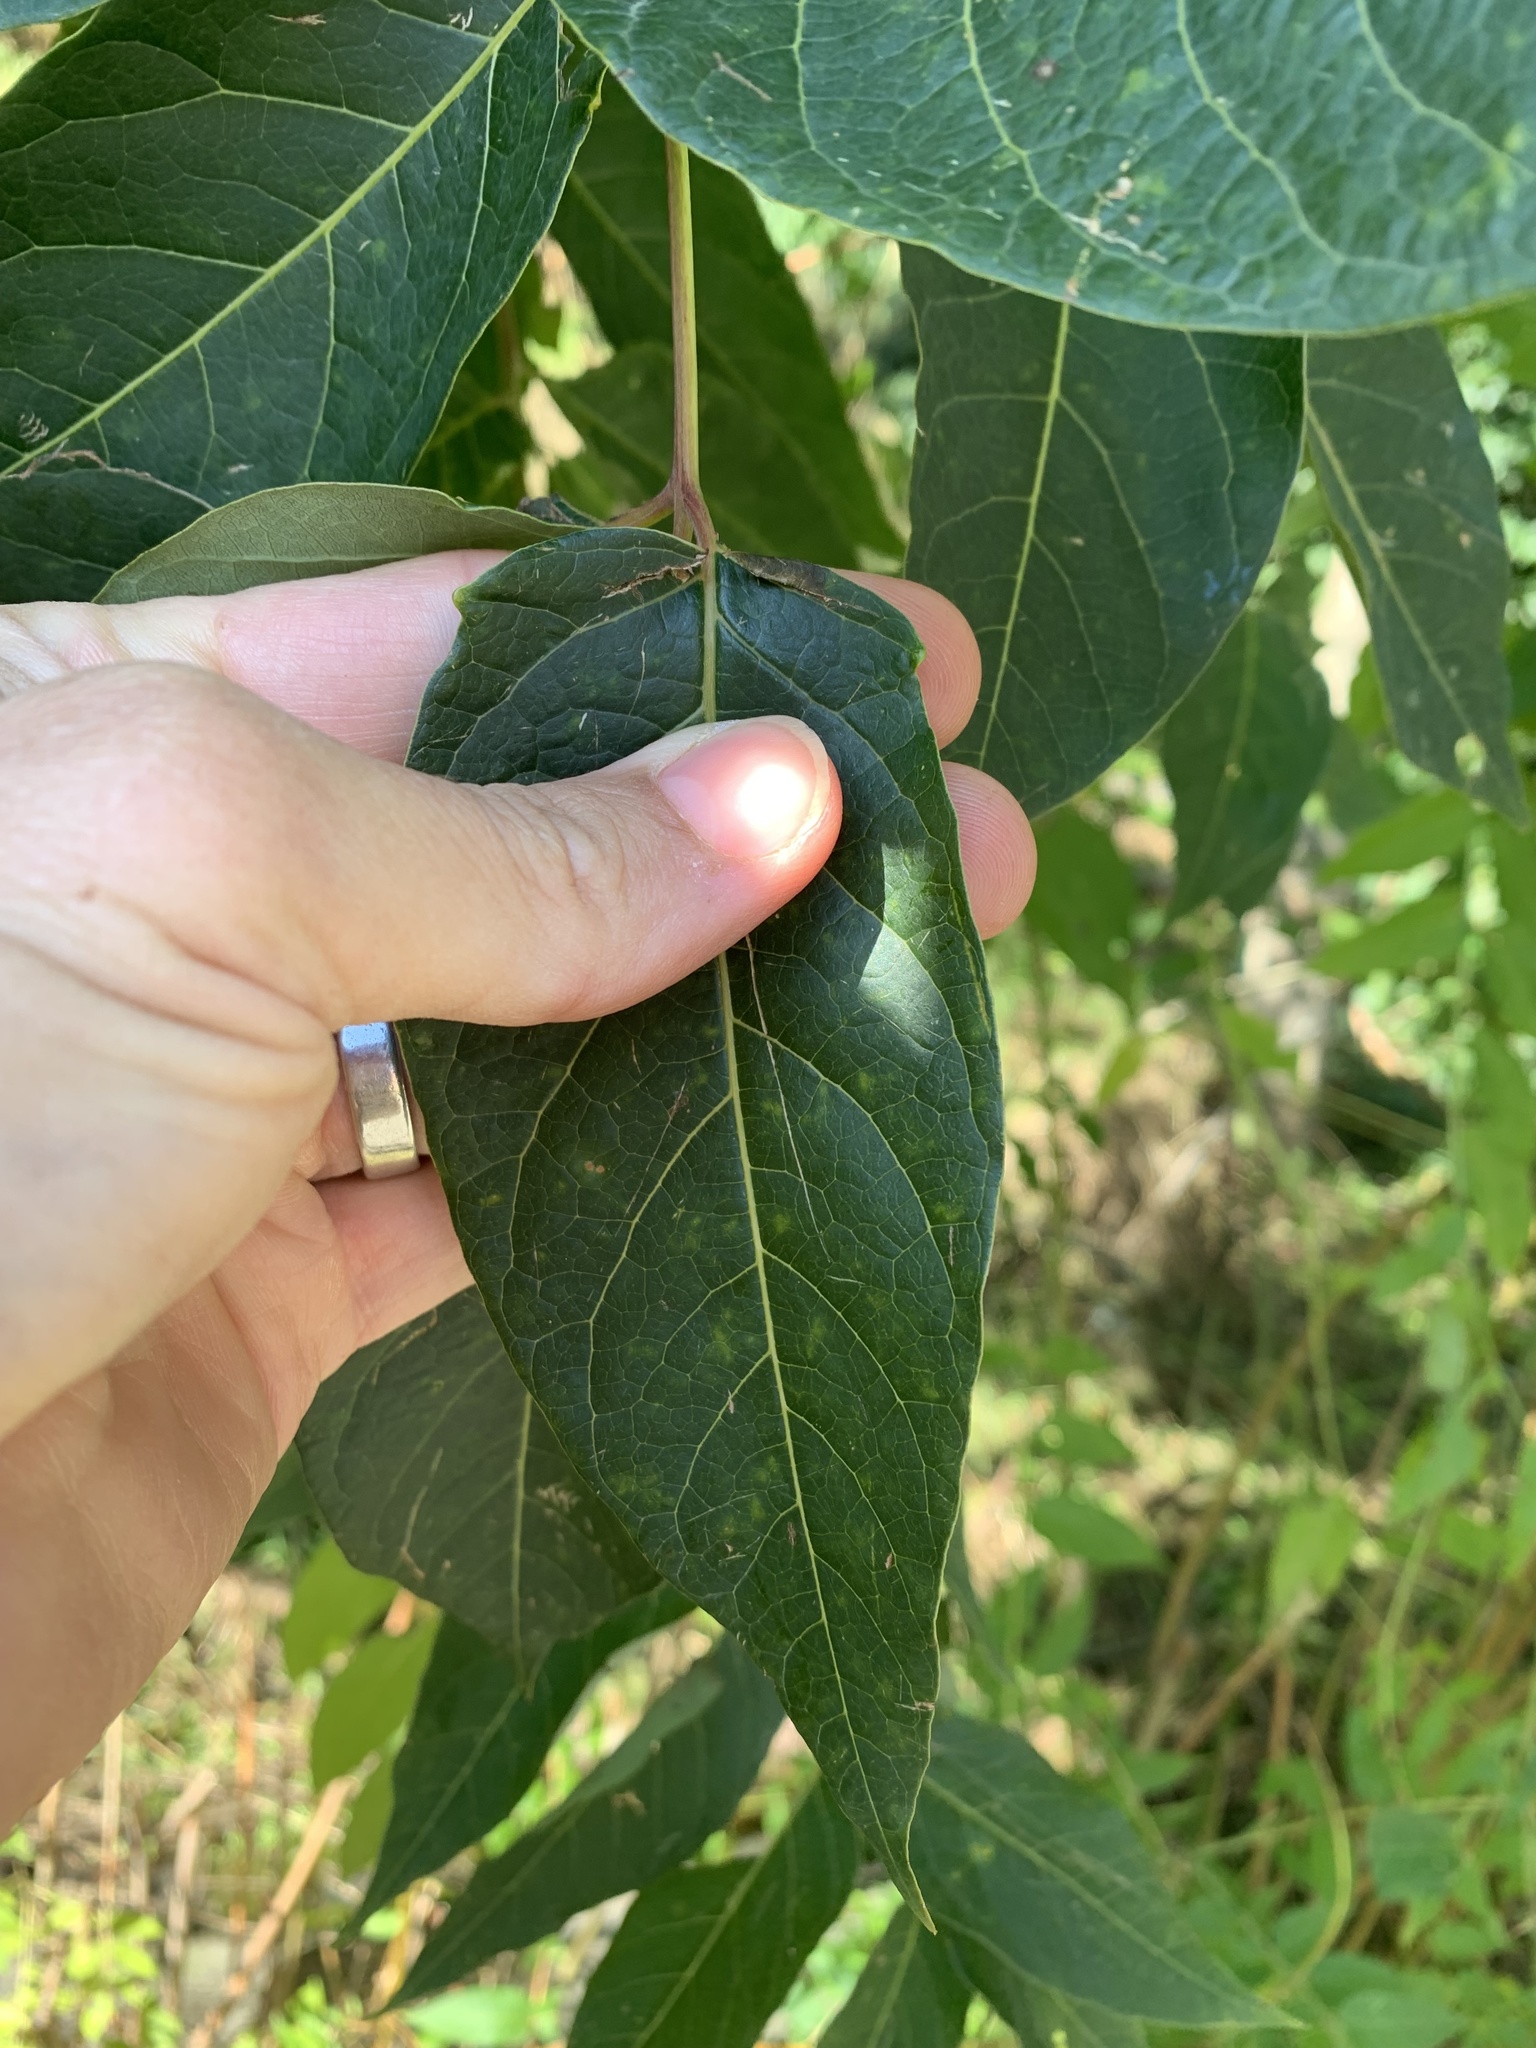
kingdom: Plantae
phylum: Tracheophyta
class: Magnoliopsida
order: Sapindales
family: Simaroubaceae
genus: Ailanthus
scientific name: Ailanthus altissima
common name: Tree-of-heaven
